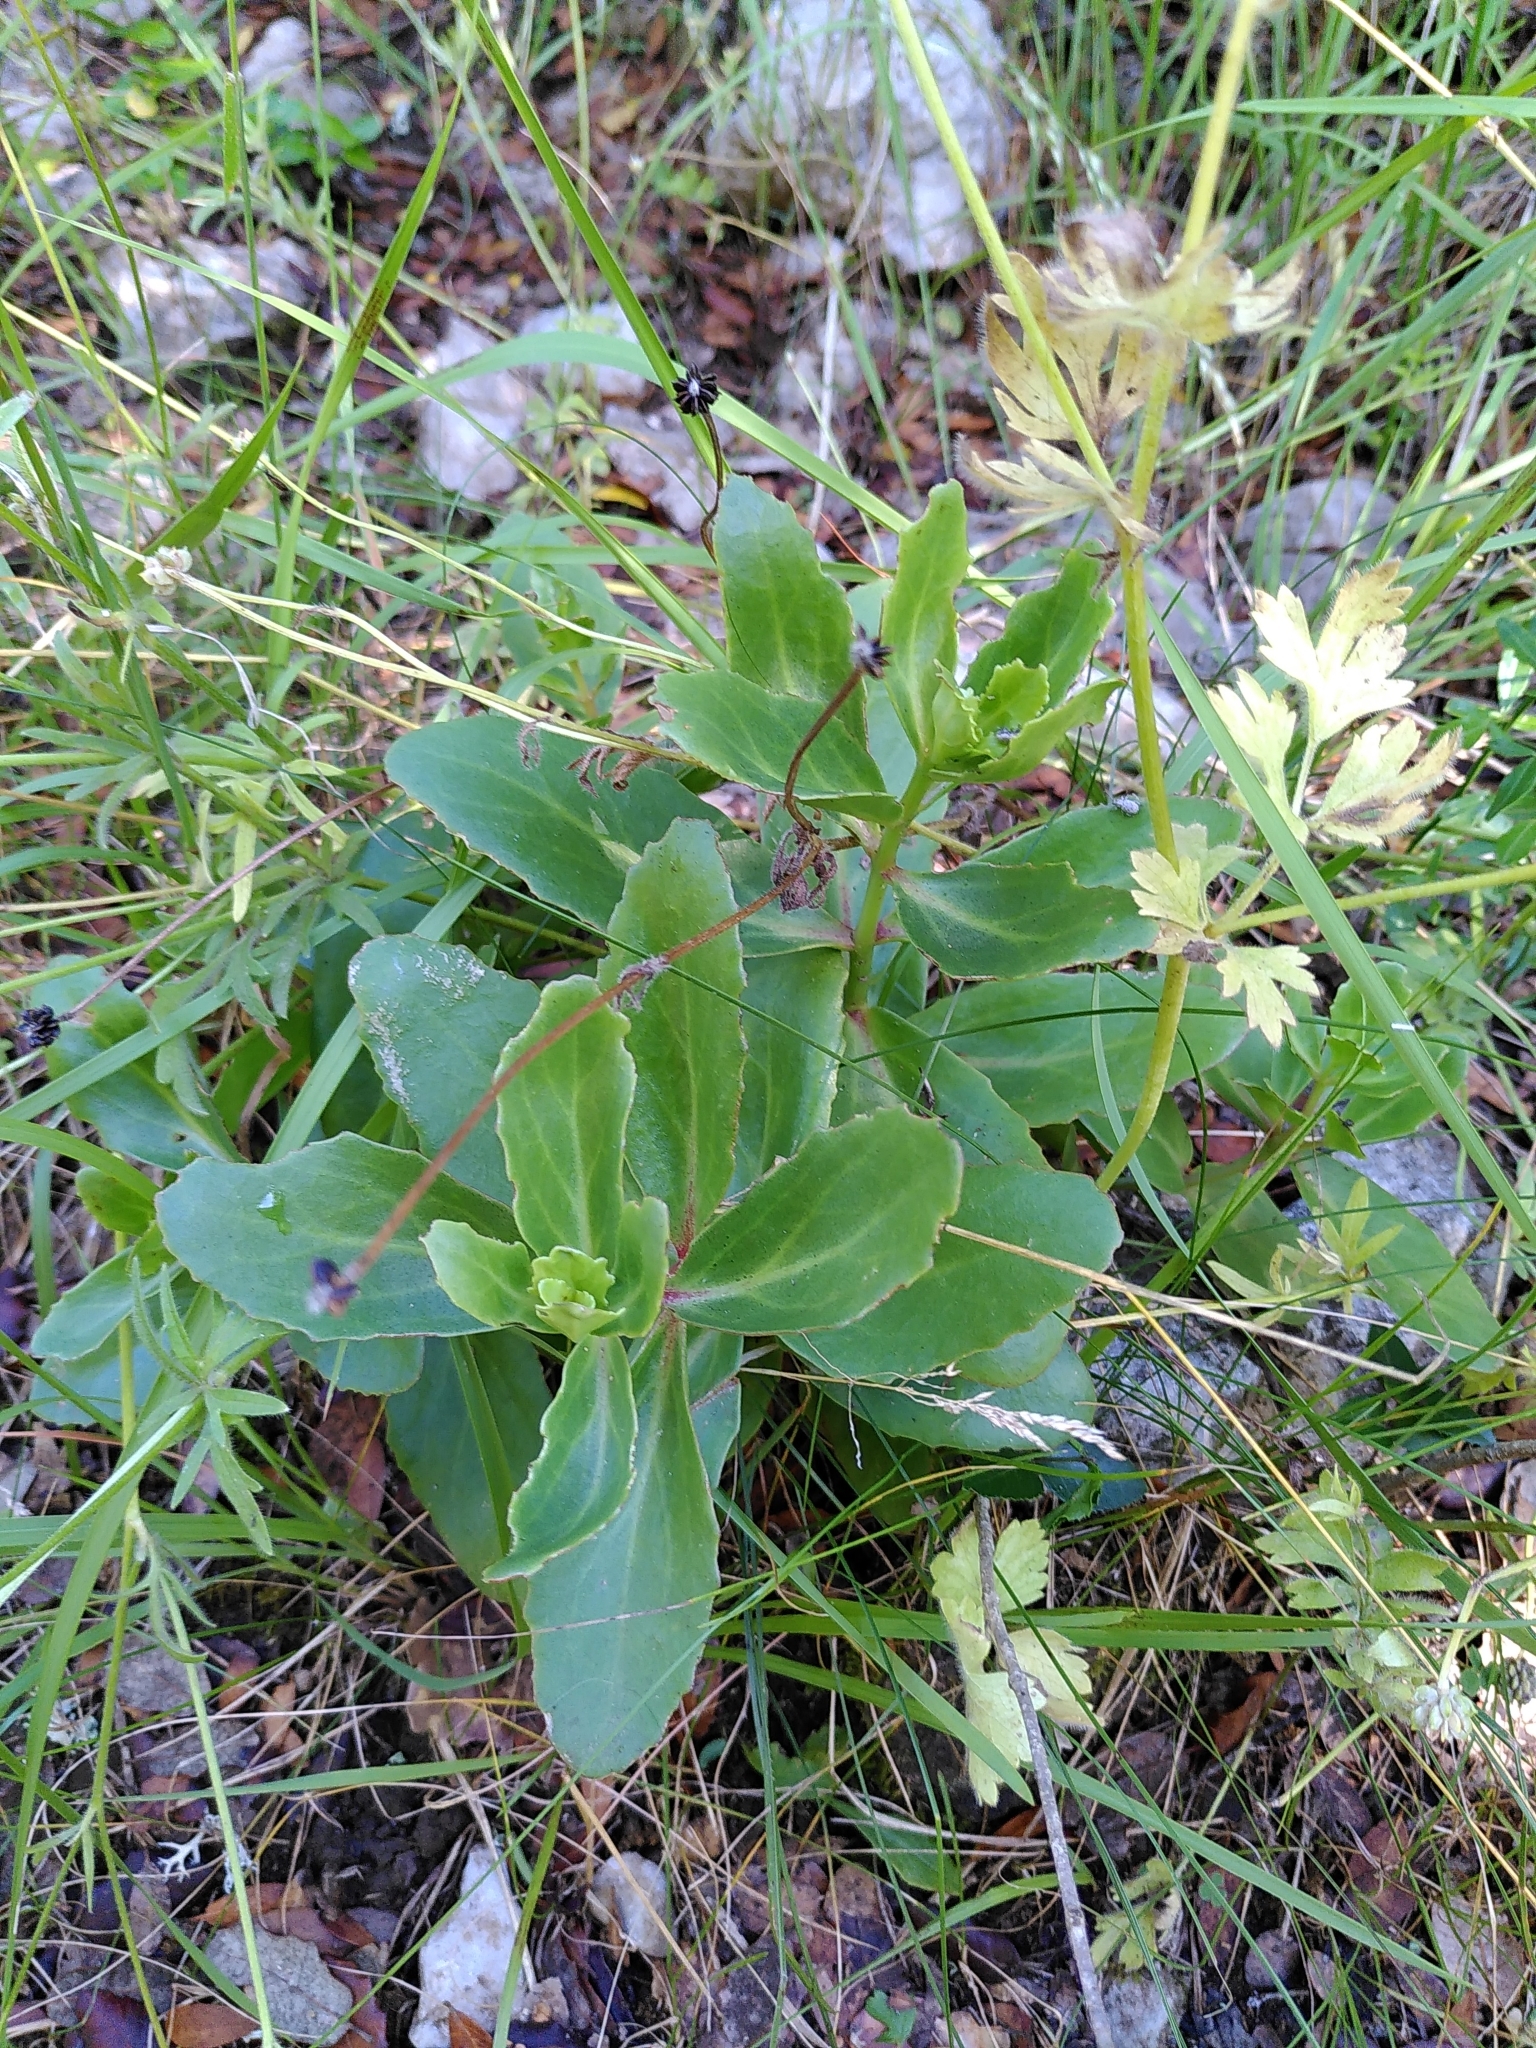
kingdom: Plantae
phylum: Tracheophyta
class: Magnoliopsida
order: Saxifragales
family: Crassulaceae
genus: Hylotelephium
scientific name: Hylotelephium maximum
